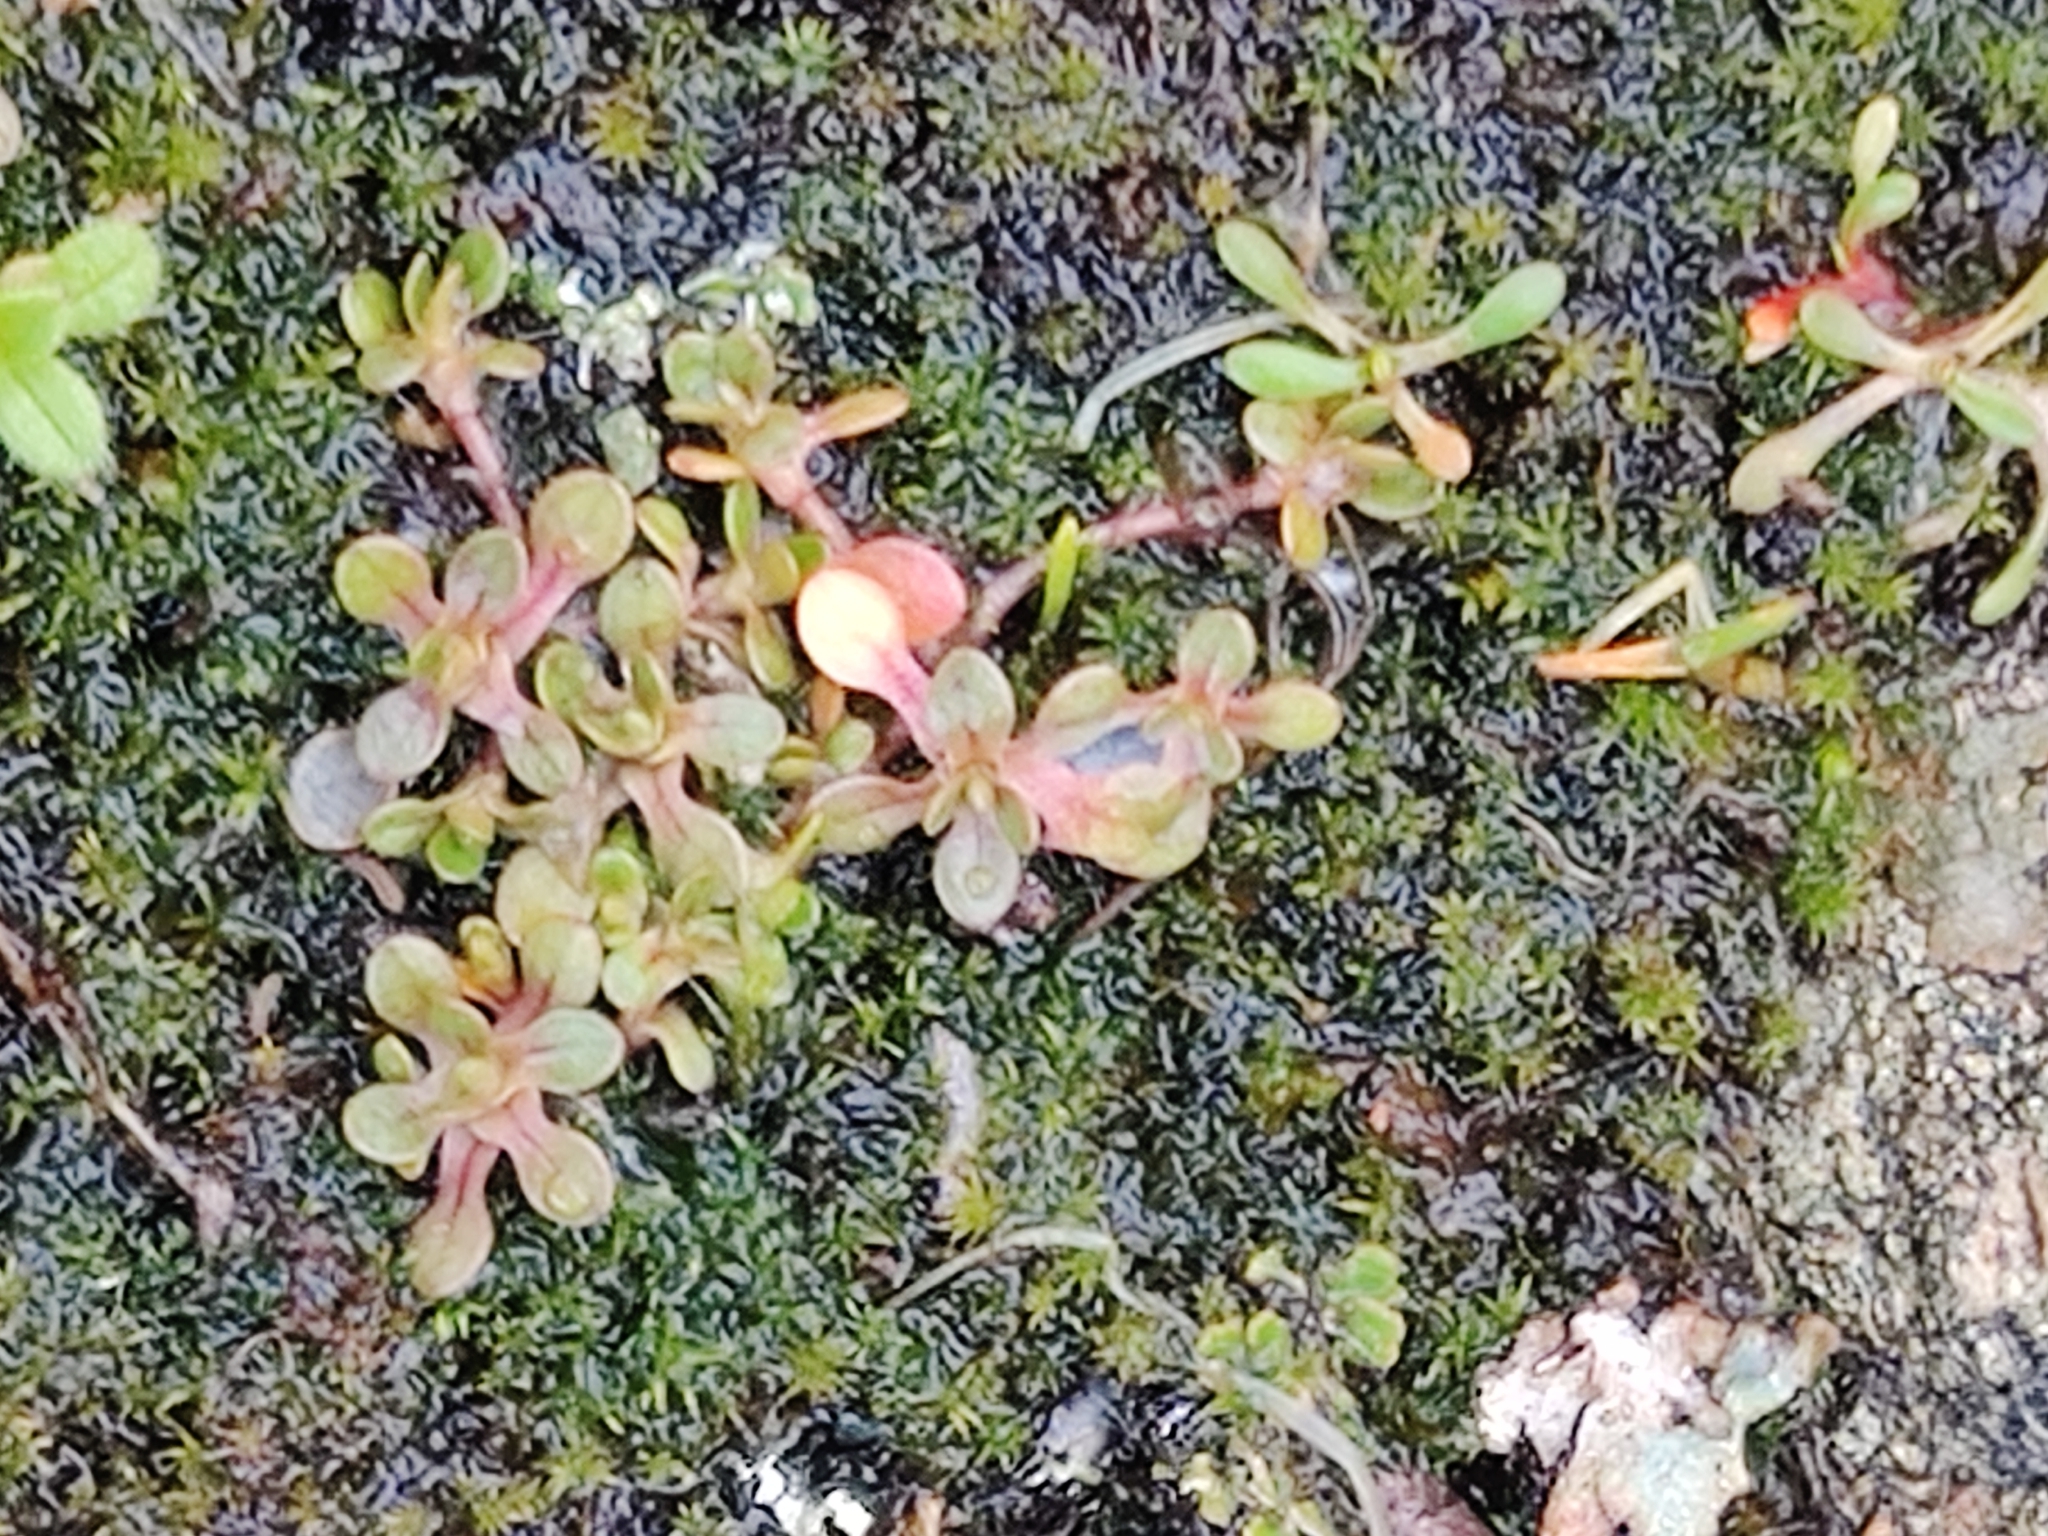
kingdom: Plantae
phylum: Tracheophyta
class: Magnoliopsida
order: Caryophyllales
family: Montiaceae
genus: Montia
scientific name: Montia fontana
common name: Blinks
